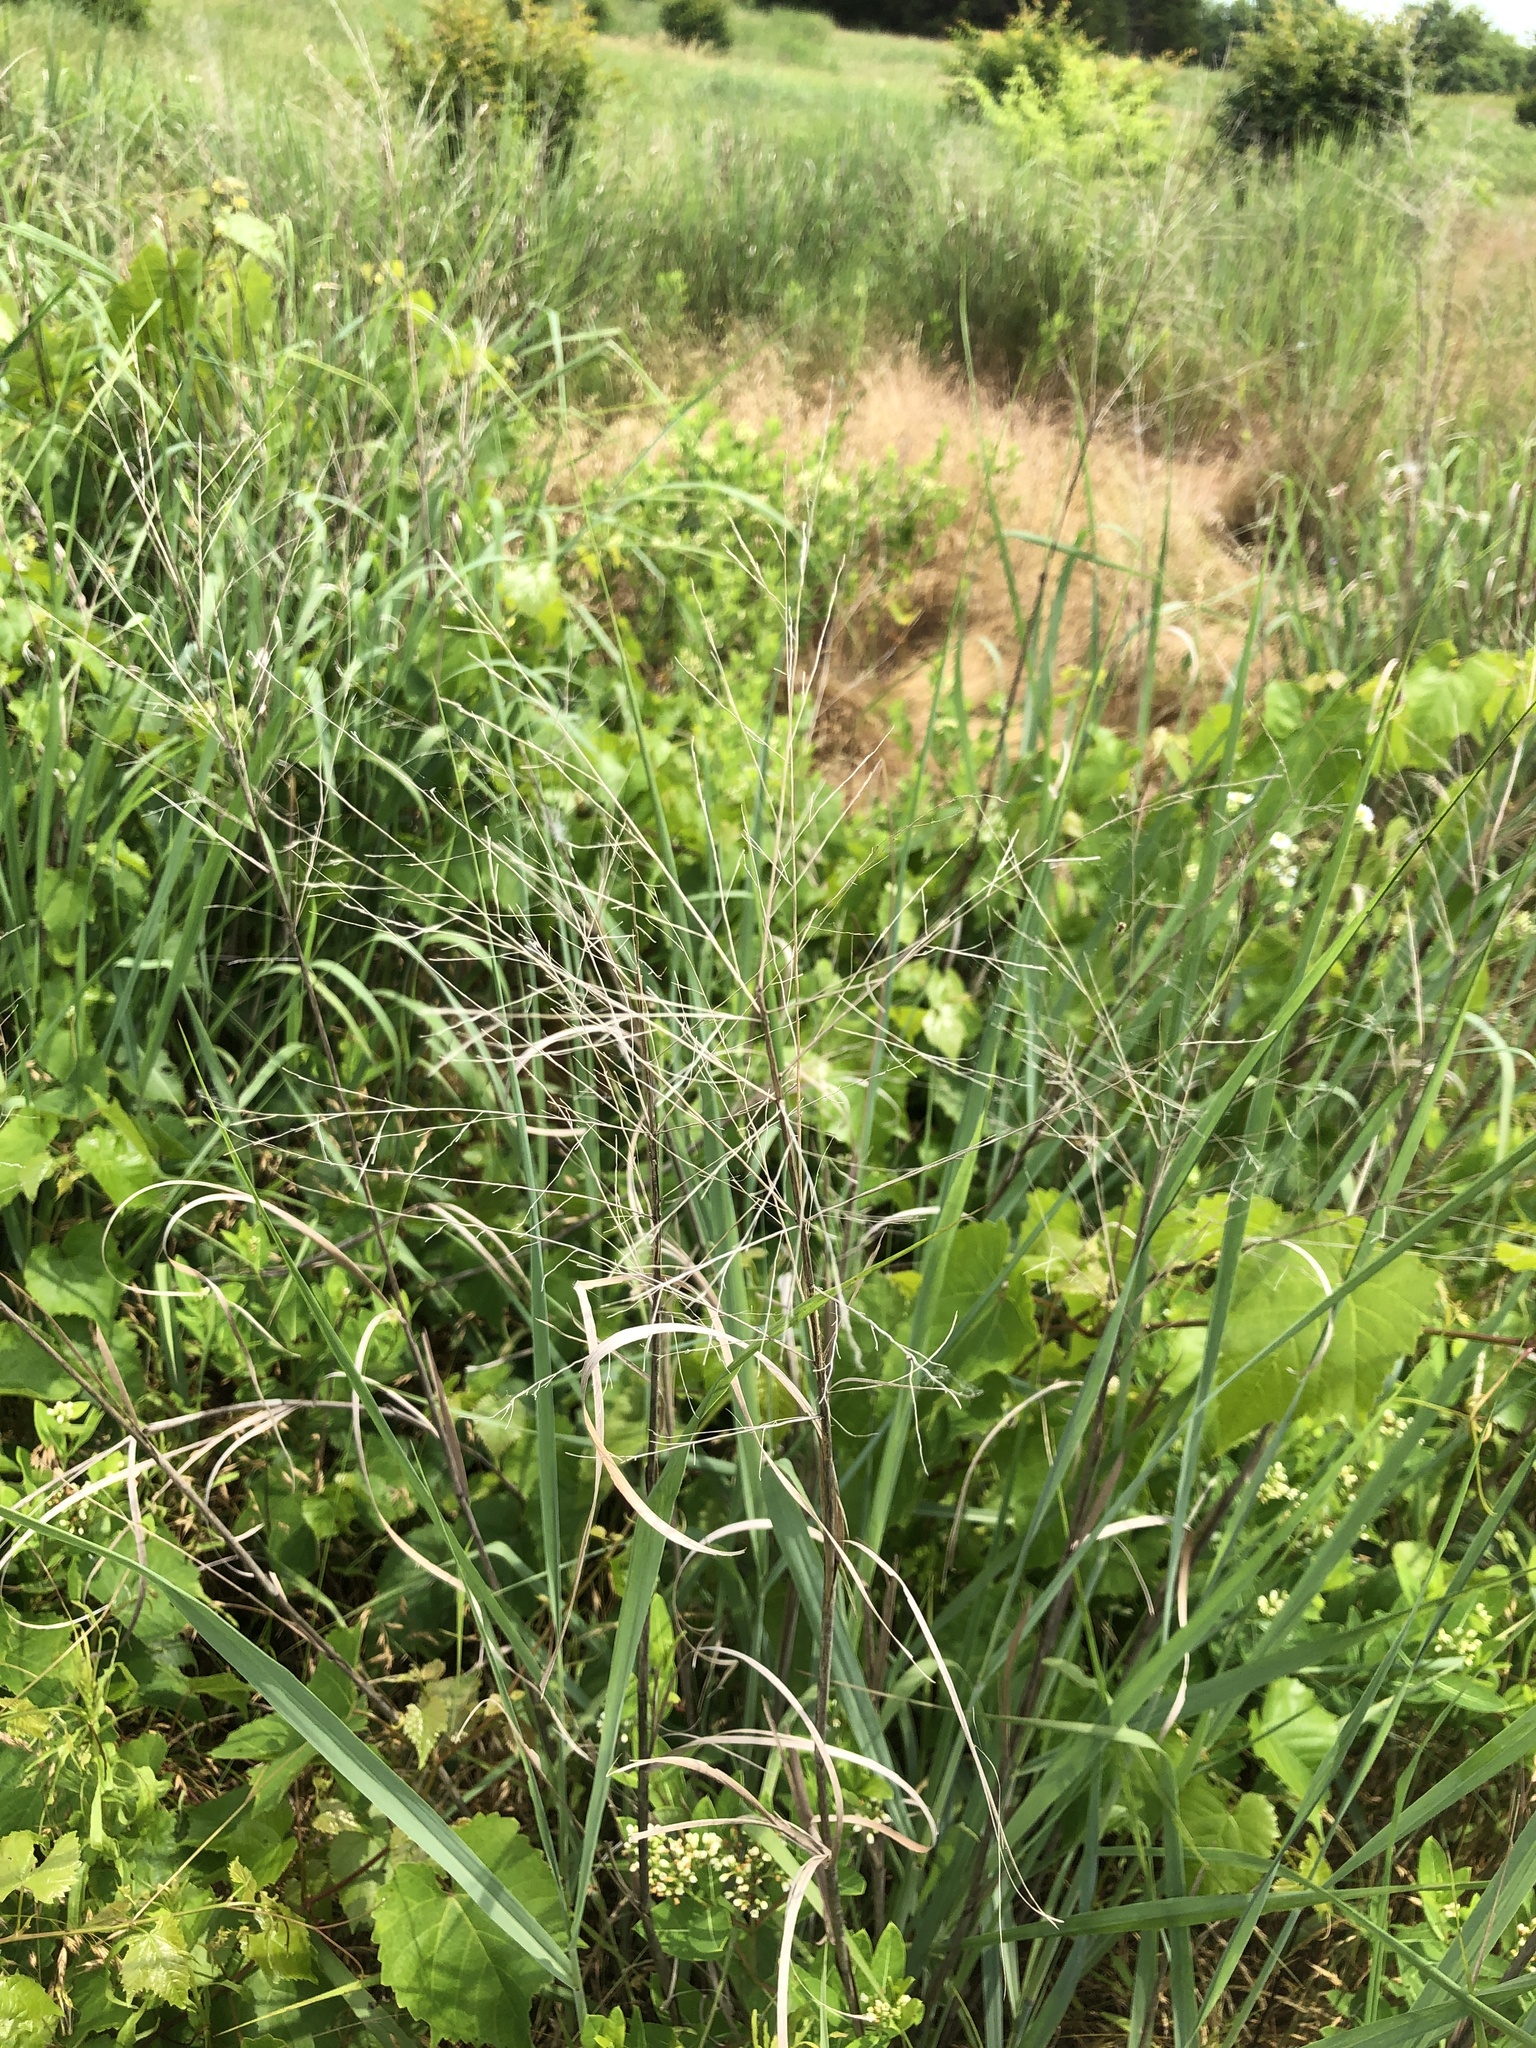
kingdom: Plantae
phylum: Tracheophyta
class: Liliopsida
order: Poales
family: Poaceae
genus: Panicum
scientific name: Panicum virgatum
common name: Switchgrass
